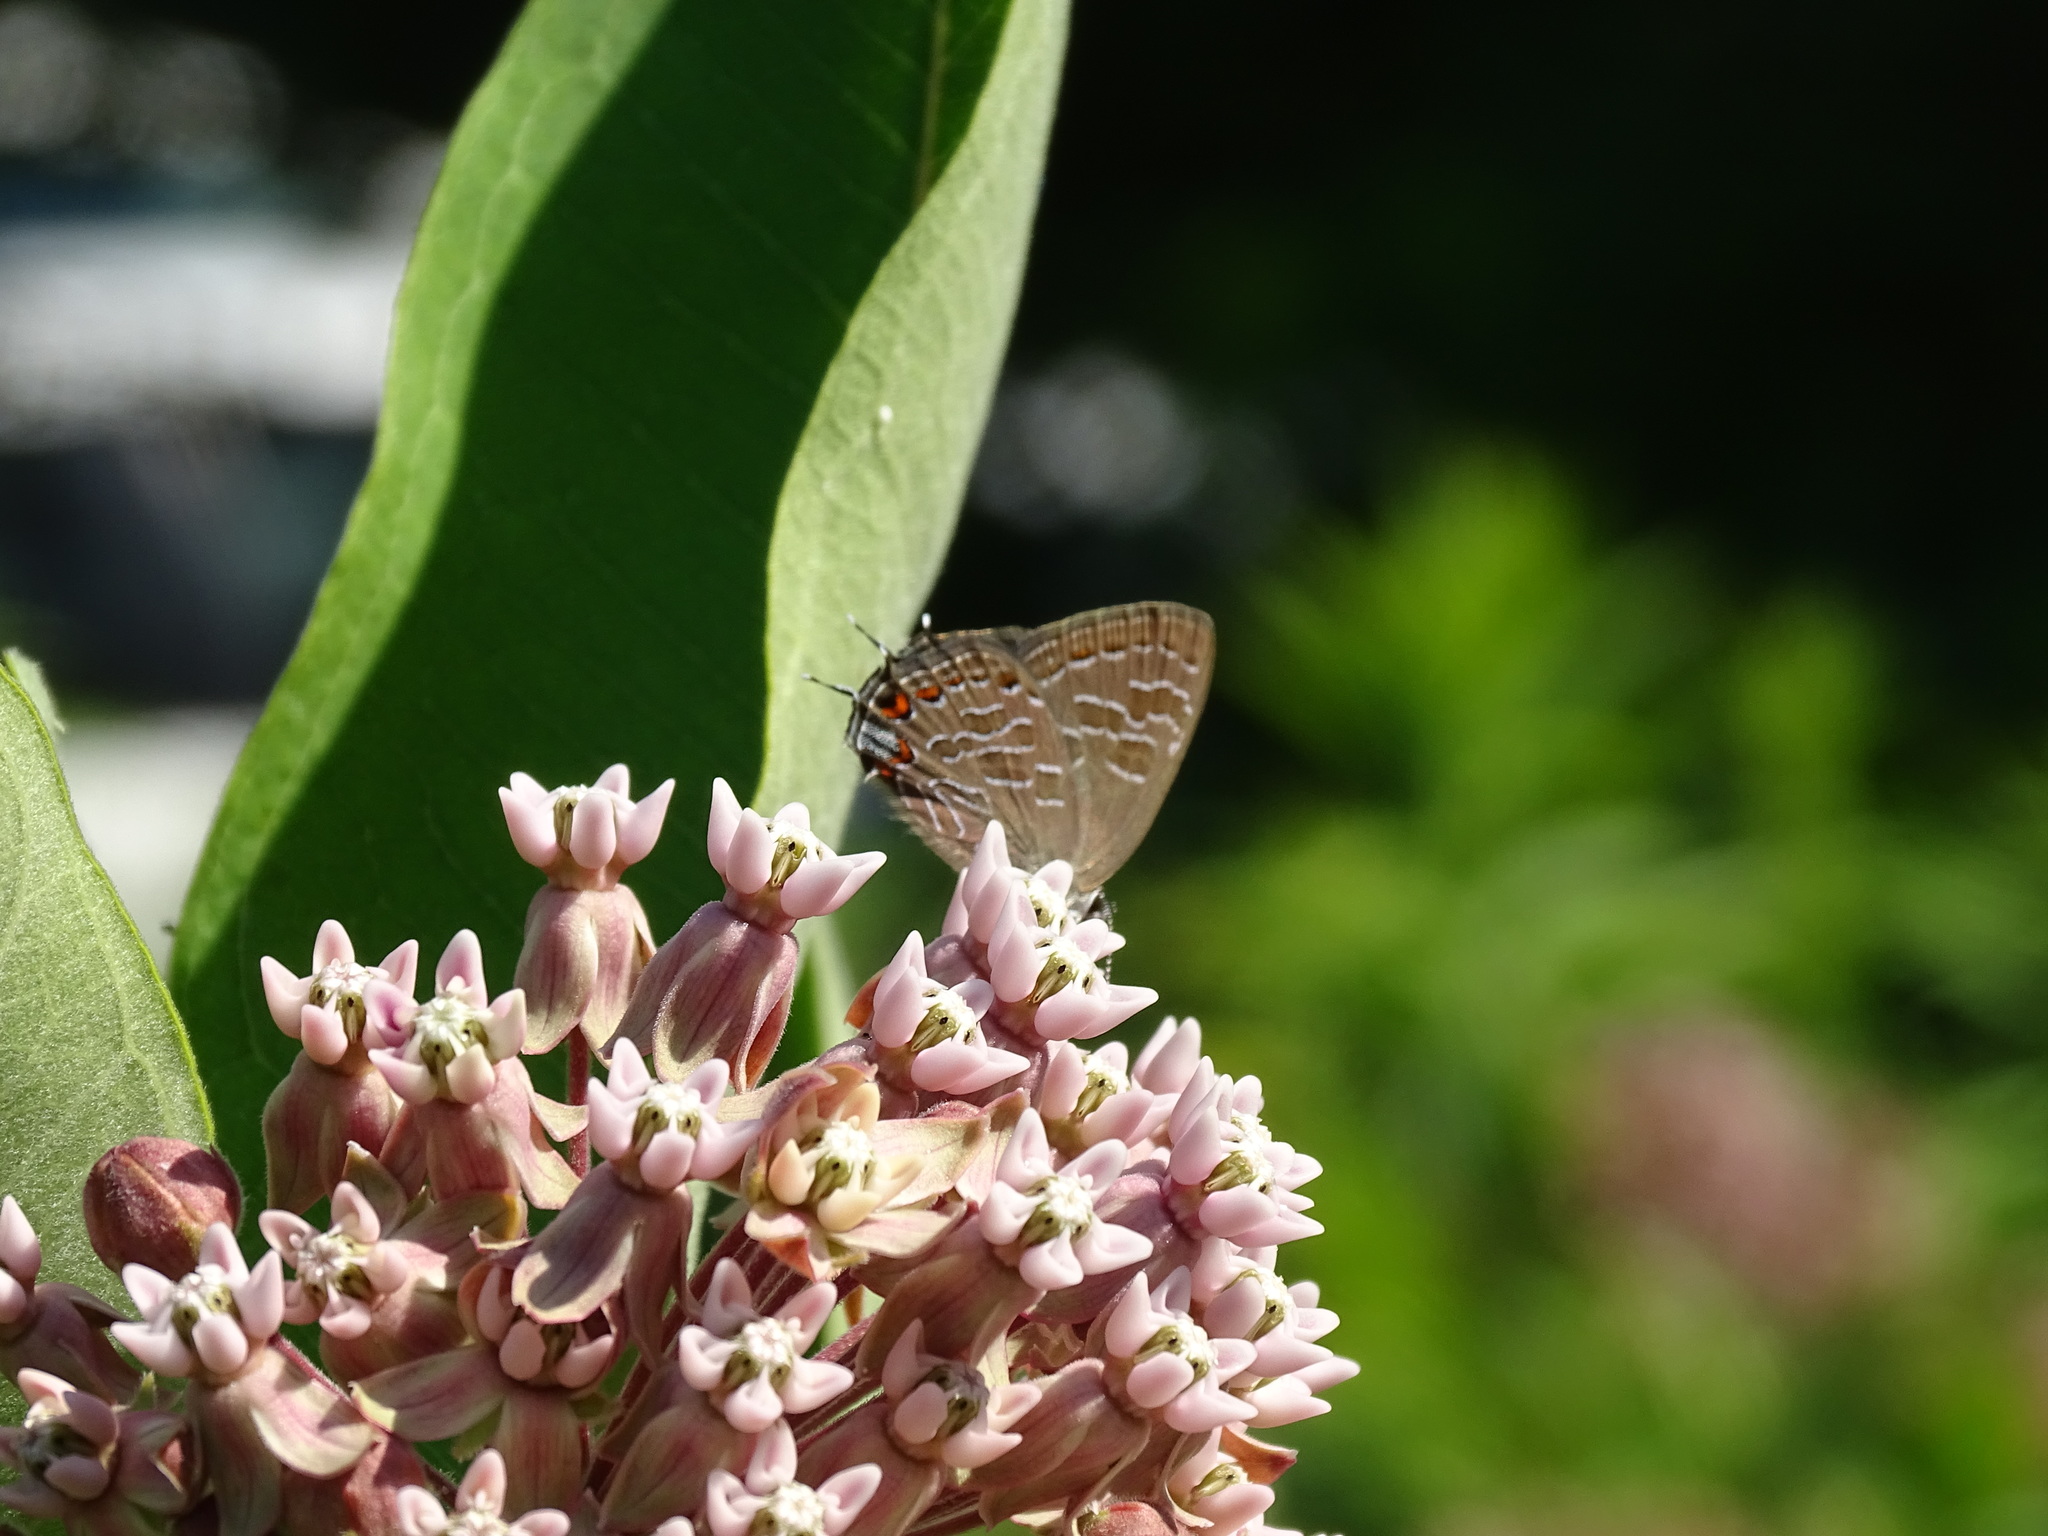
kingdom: Animalia
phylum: Arthropoda
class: Insecta
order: Lepidoptera
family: Lycaenidae
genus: Satyrium
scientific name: Satyrium liparops
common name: Striped hairstreak
